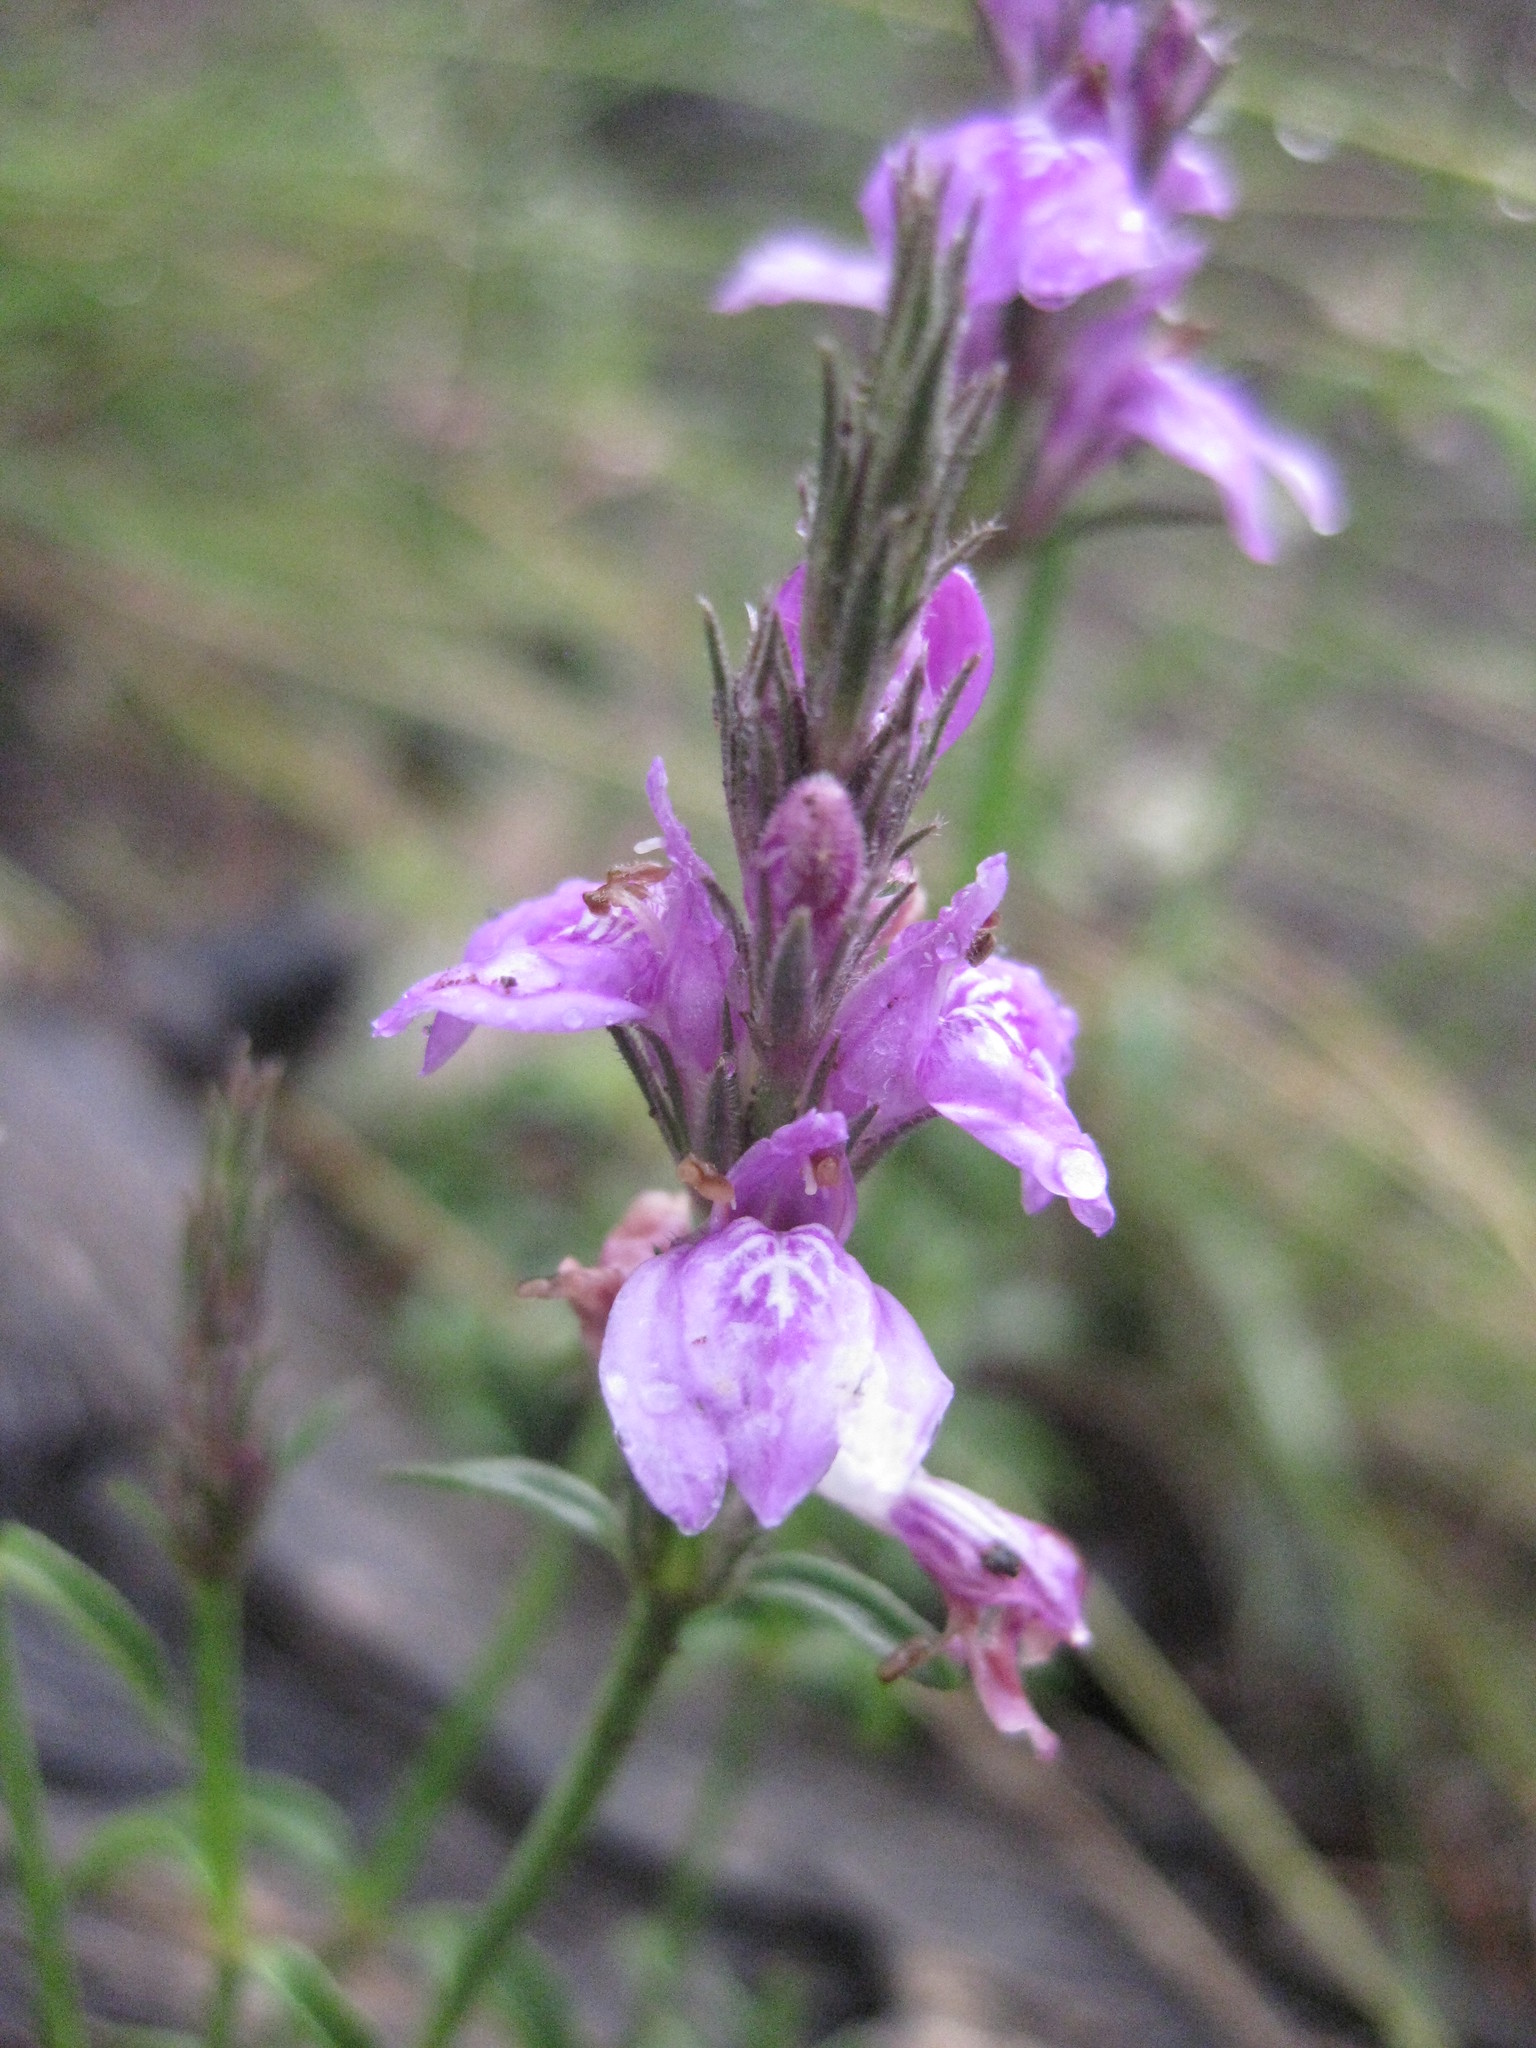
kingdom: Plantae
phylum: Tracheophyta
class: Magnoliopsida
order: Lamiales
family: Acanthaceae
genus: Rostellularia
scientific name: Rostellularia adscendens
